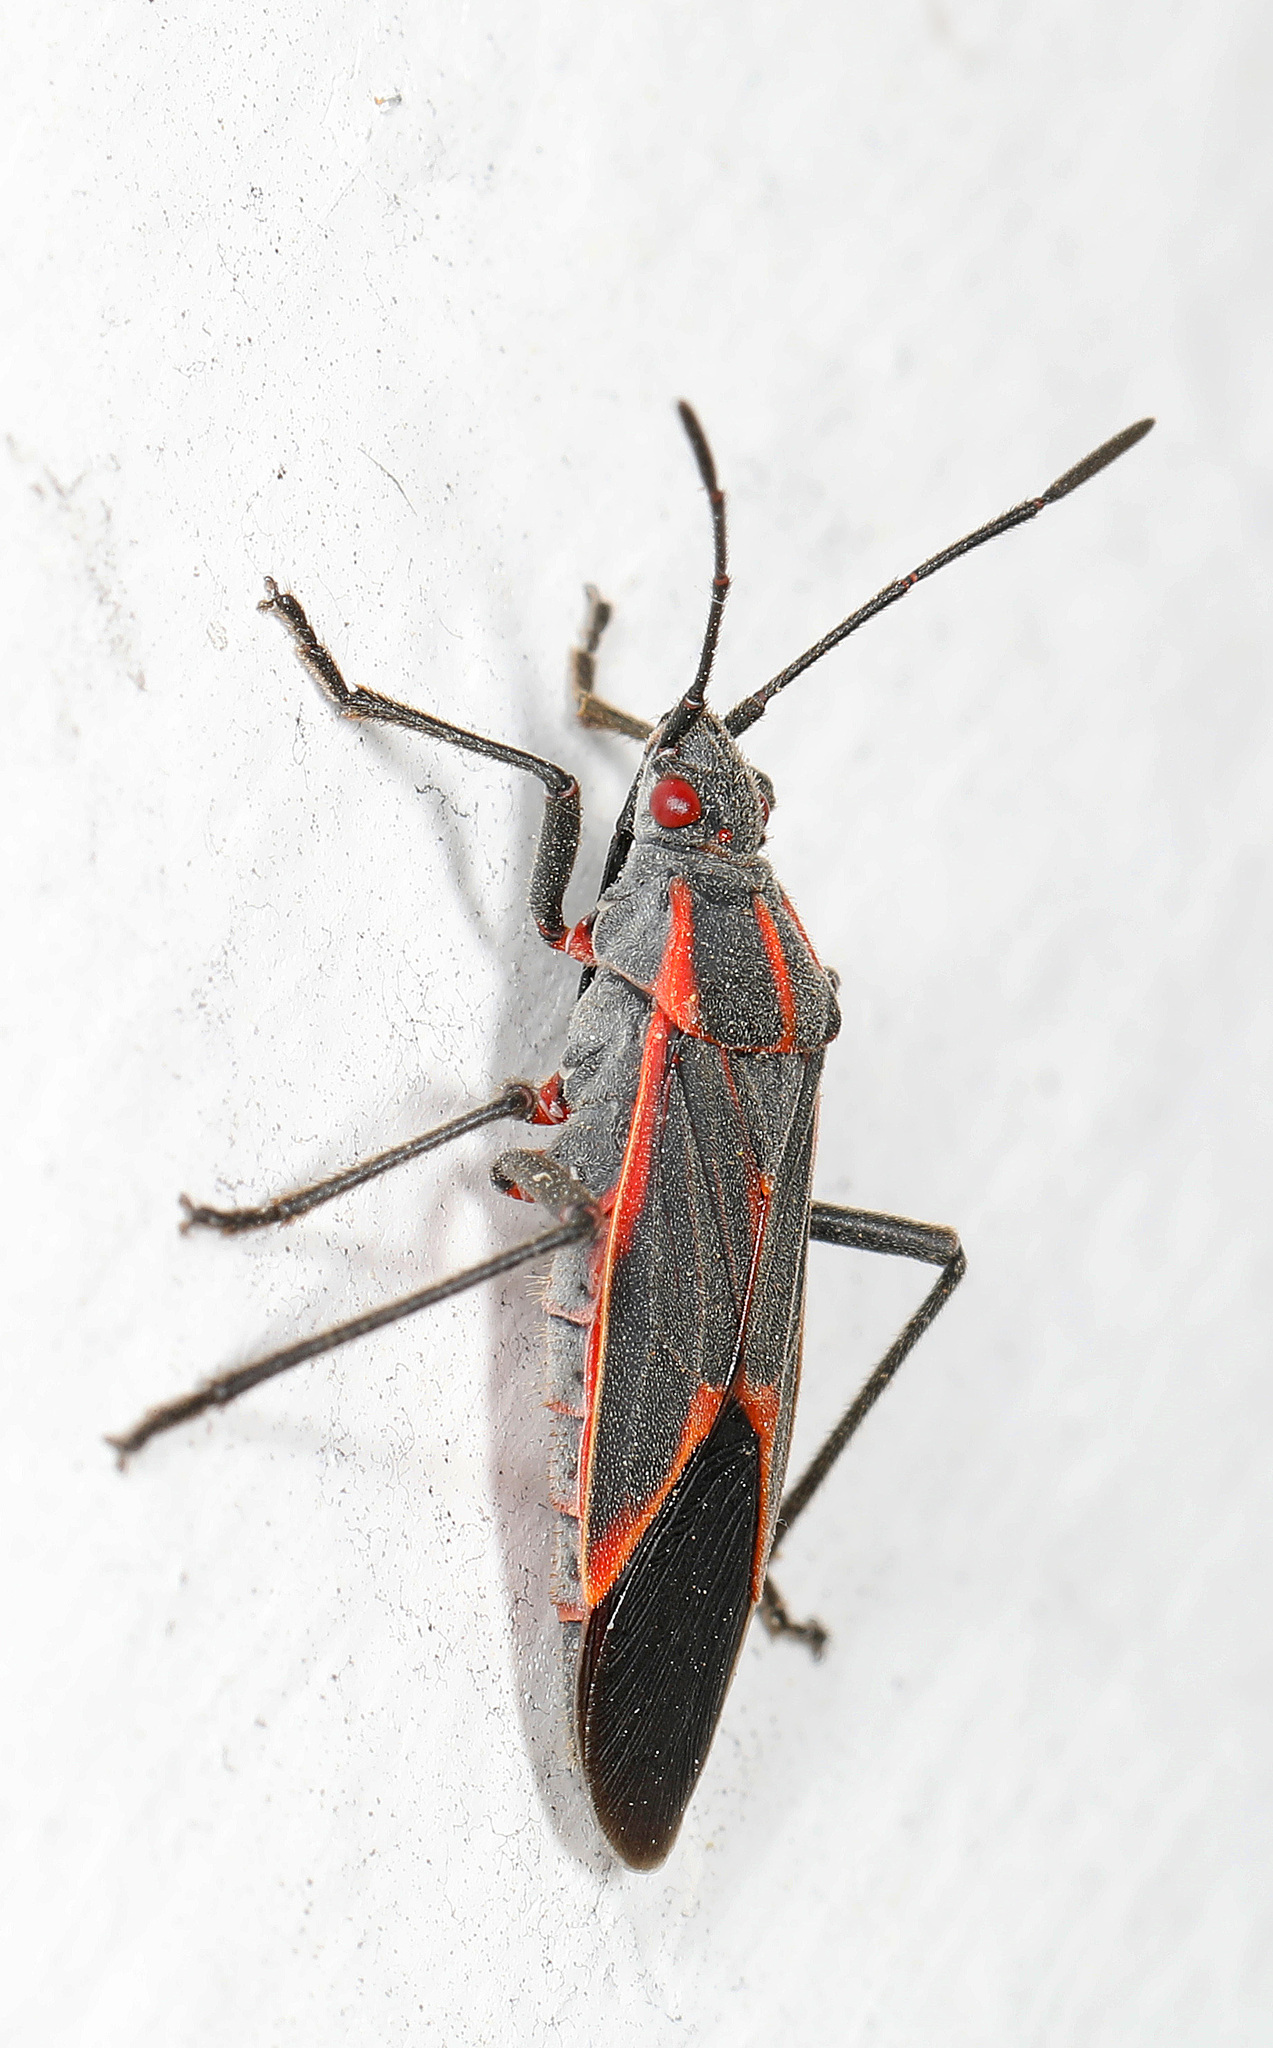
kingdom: Animalia
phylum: Arthropoda
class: Insecta
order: Hemiptera
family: Rhopalidae
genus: Boisea
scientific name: Boisea trivittata
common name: Boxelder bug
